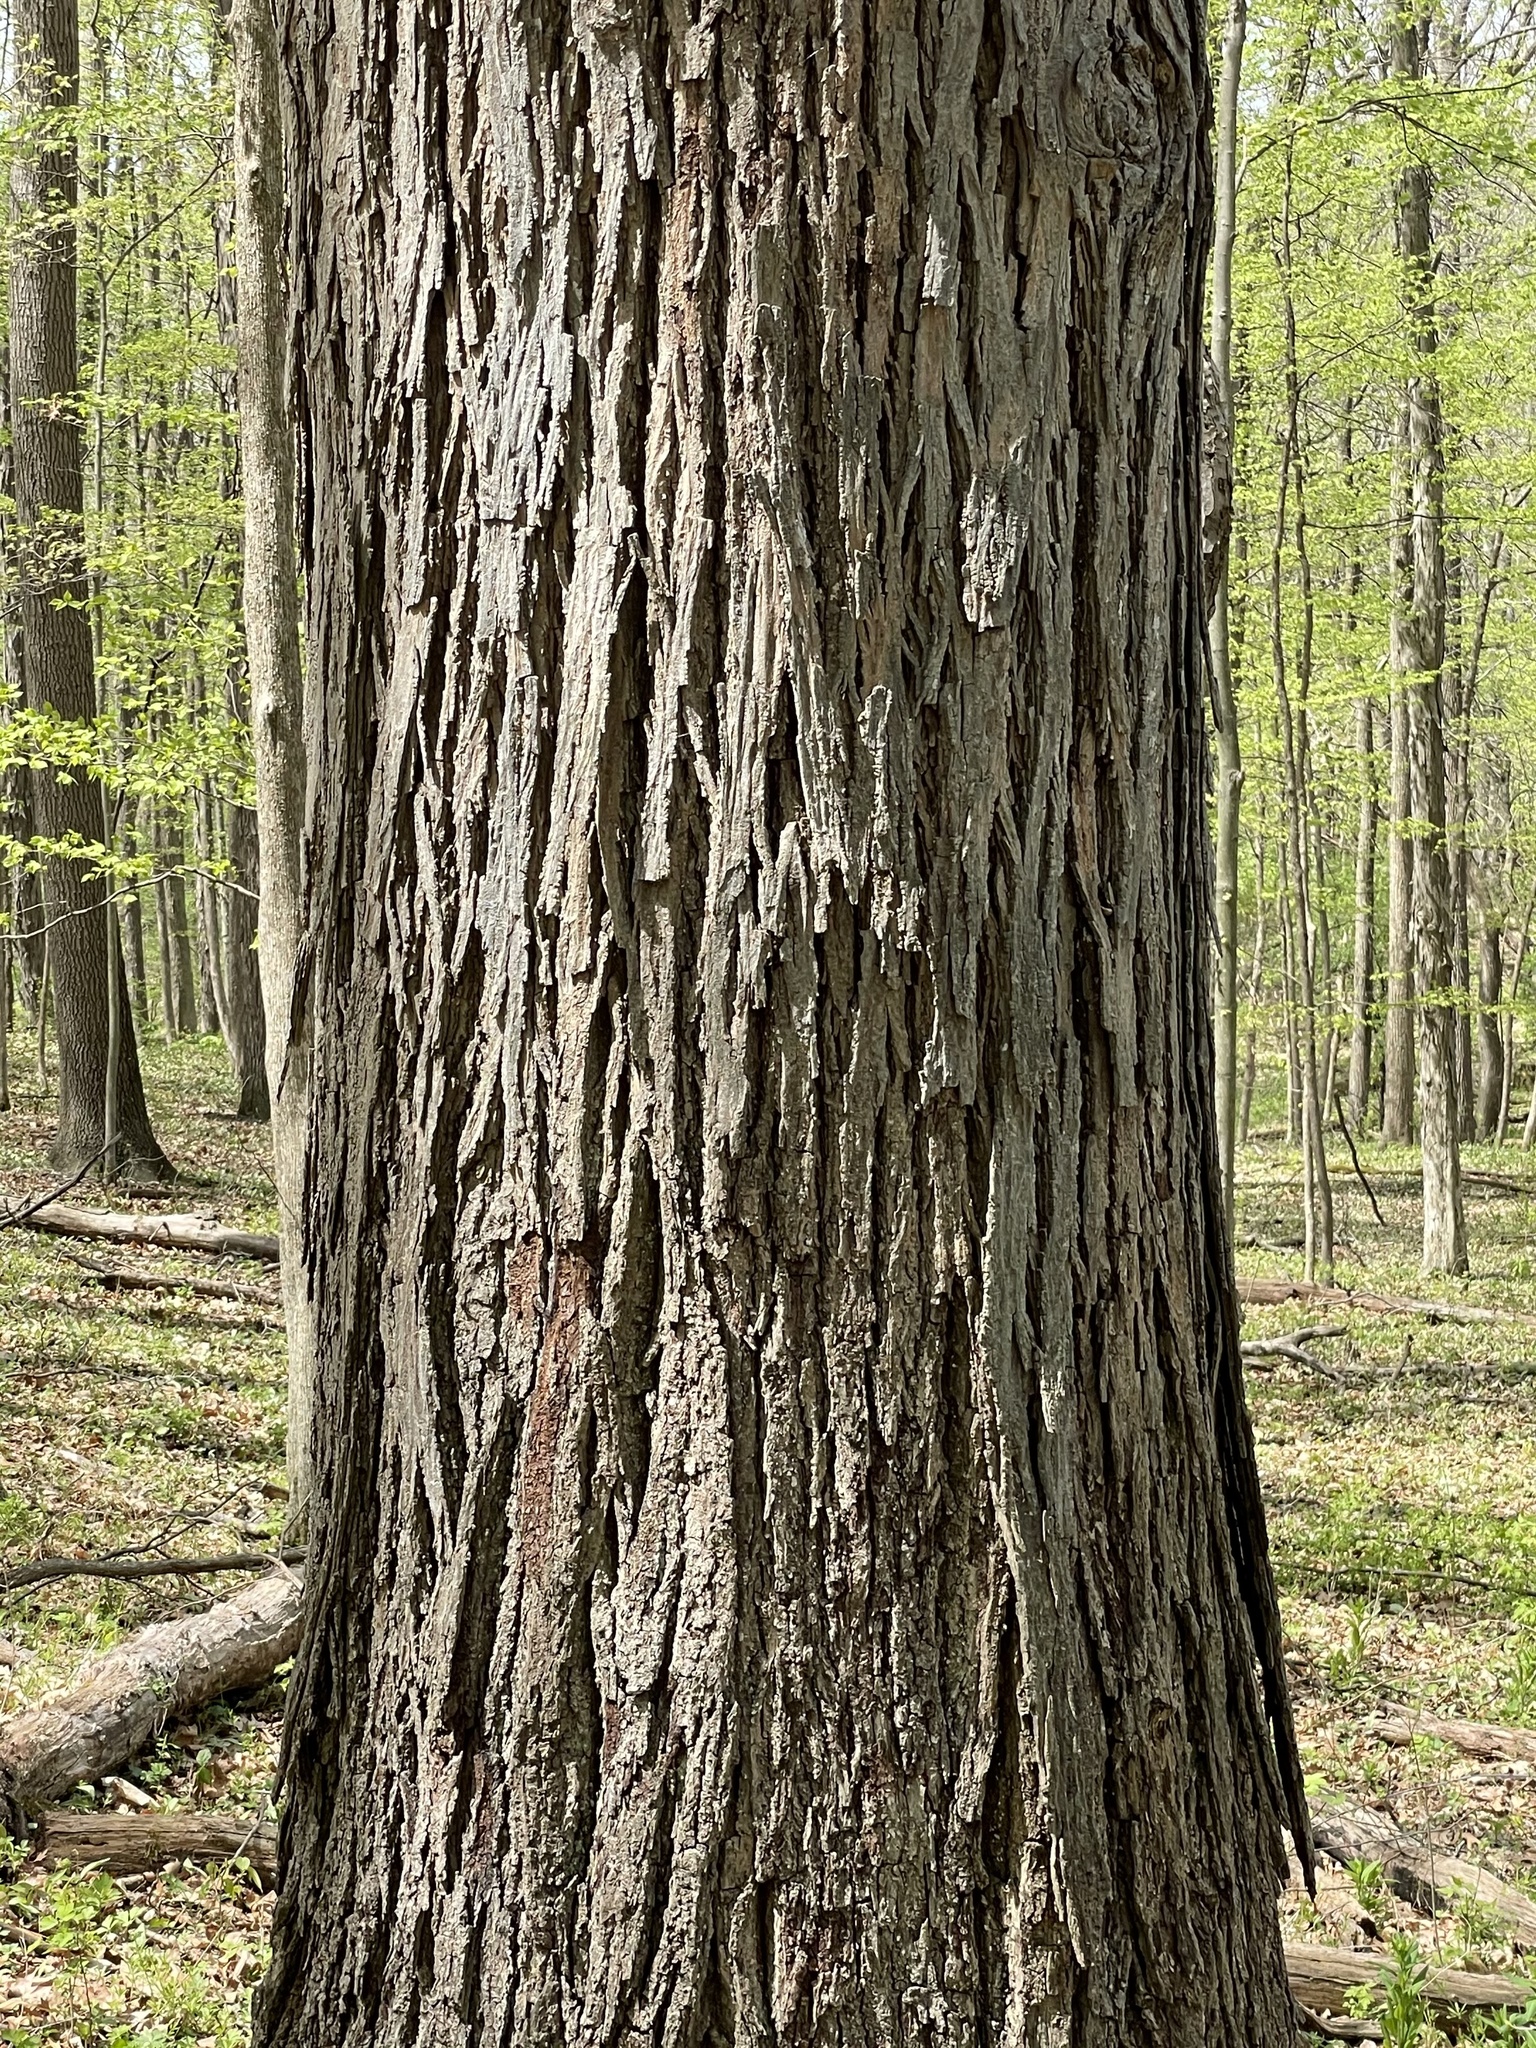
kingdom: Plantae
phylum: Tracheophyta
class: Magnoliopsida
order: Fagales
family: Juglandaceae
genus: Carya
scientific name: Carya ovata
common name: Shagbark hickory
